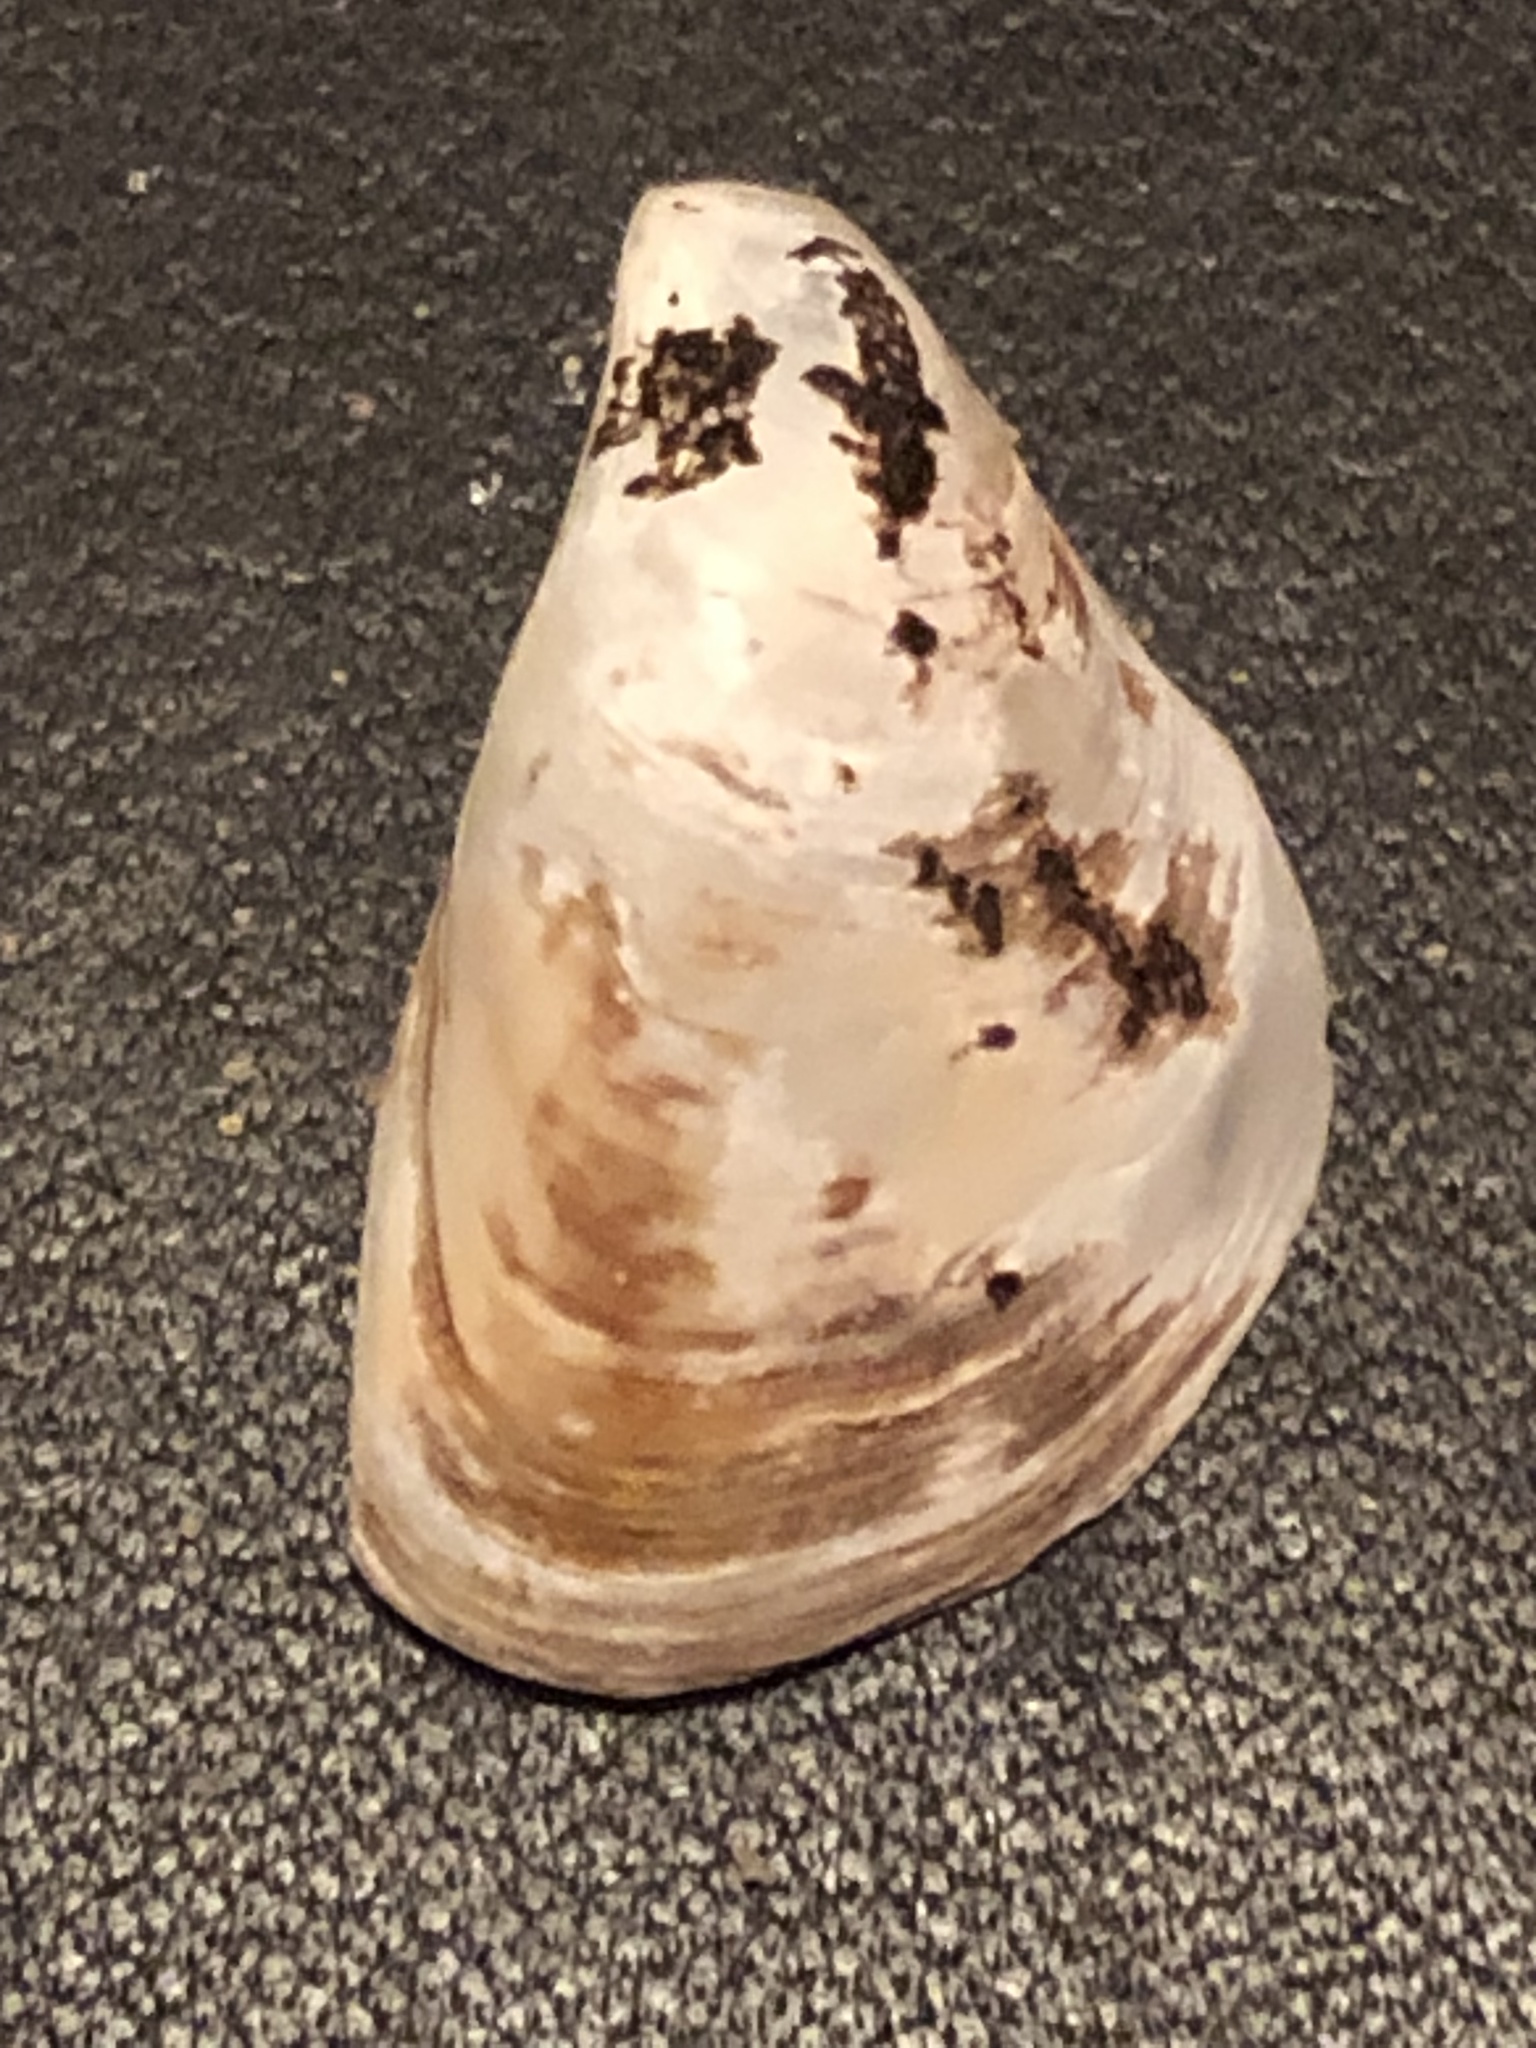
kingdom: Animalia
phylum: Mollusca
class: Bivalvia
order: Myida
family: Dreissenidae
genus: Dreissena
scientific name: Dreissena bugensis
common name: Quagga mussel
